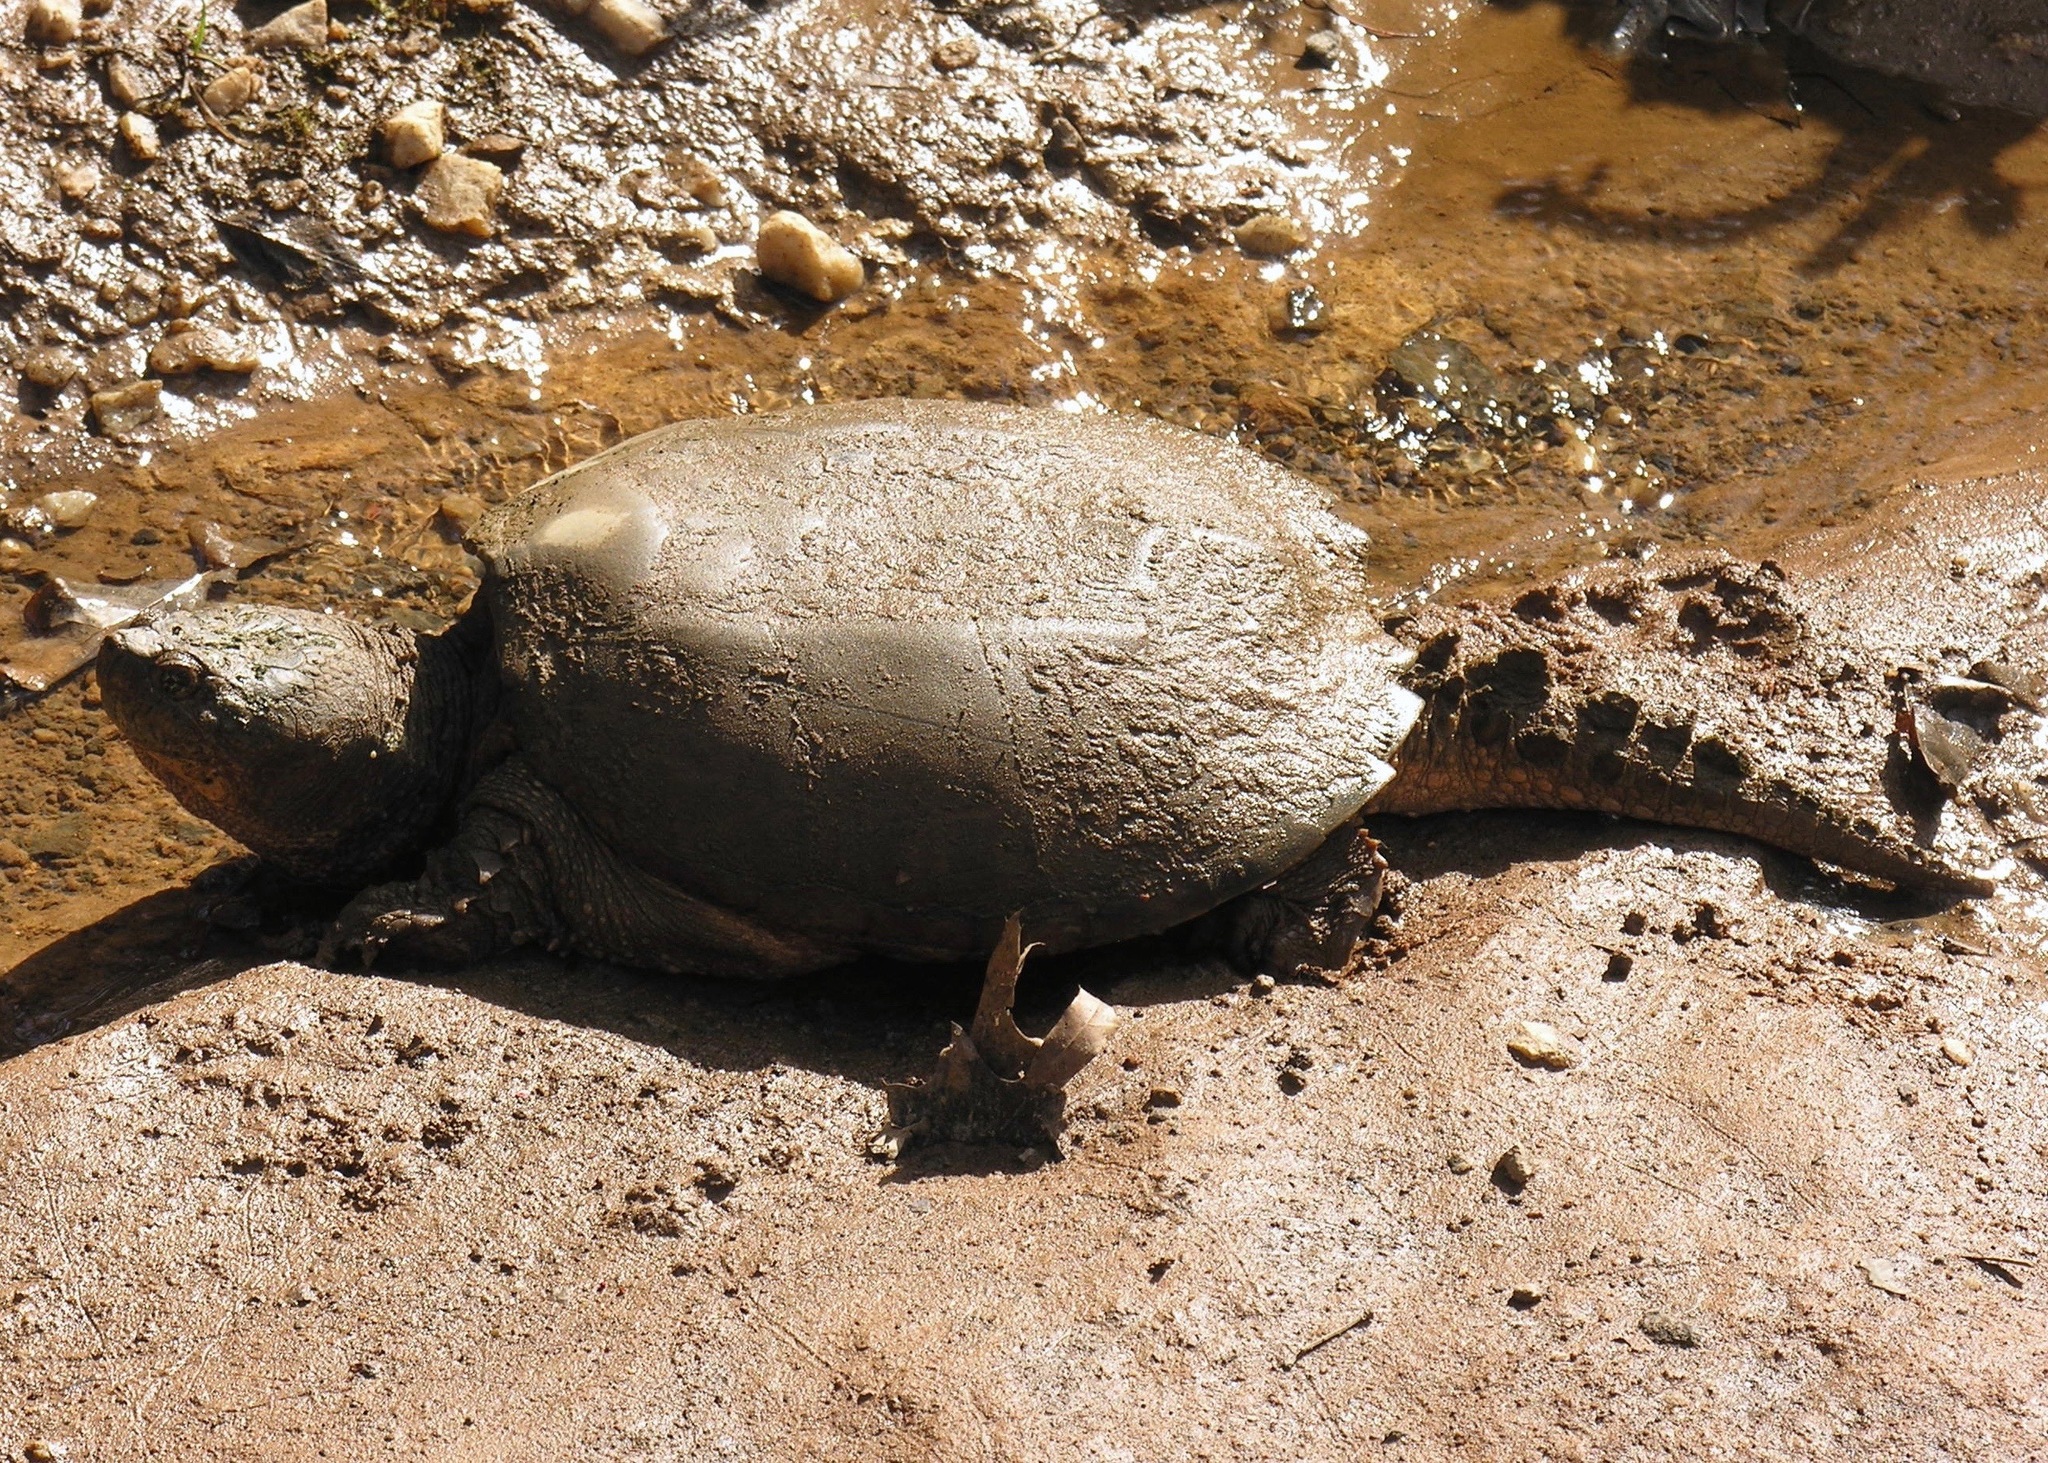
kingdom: Animalia
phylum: Chordata
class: Testudines
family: Chelydridae
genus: Chelydra
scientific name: Chelydra serpentina
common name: Common snapping turtle
